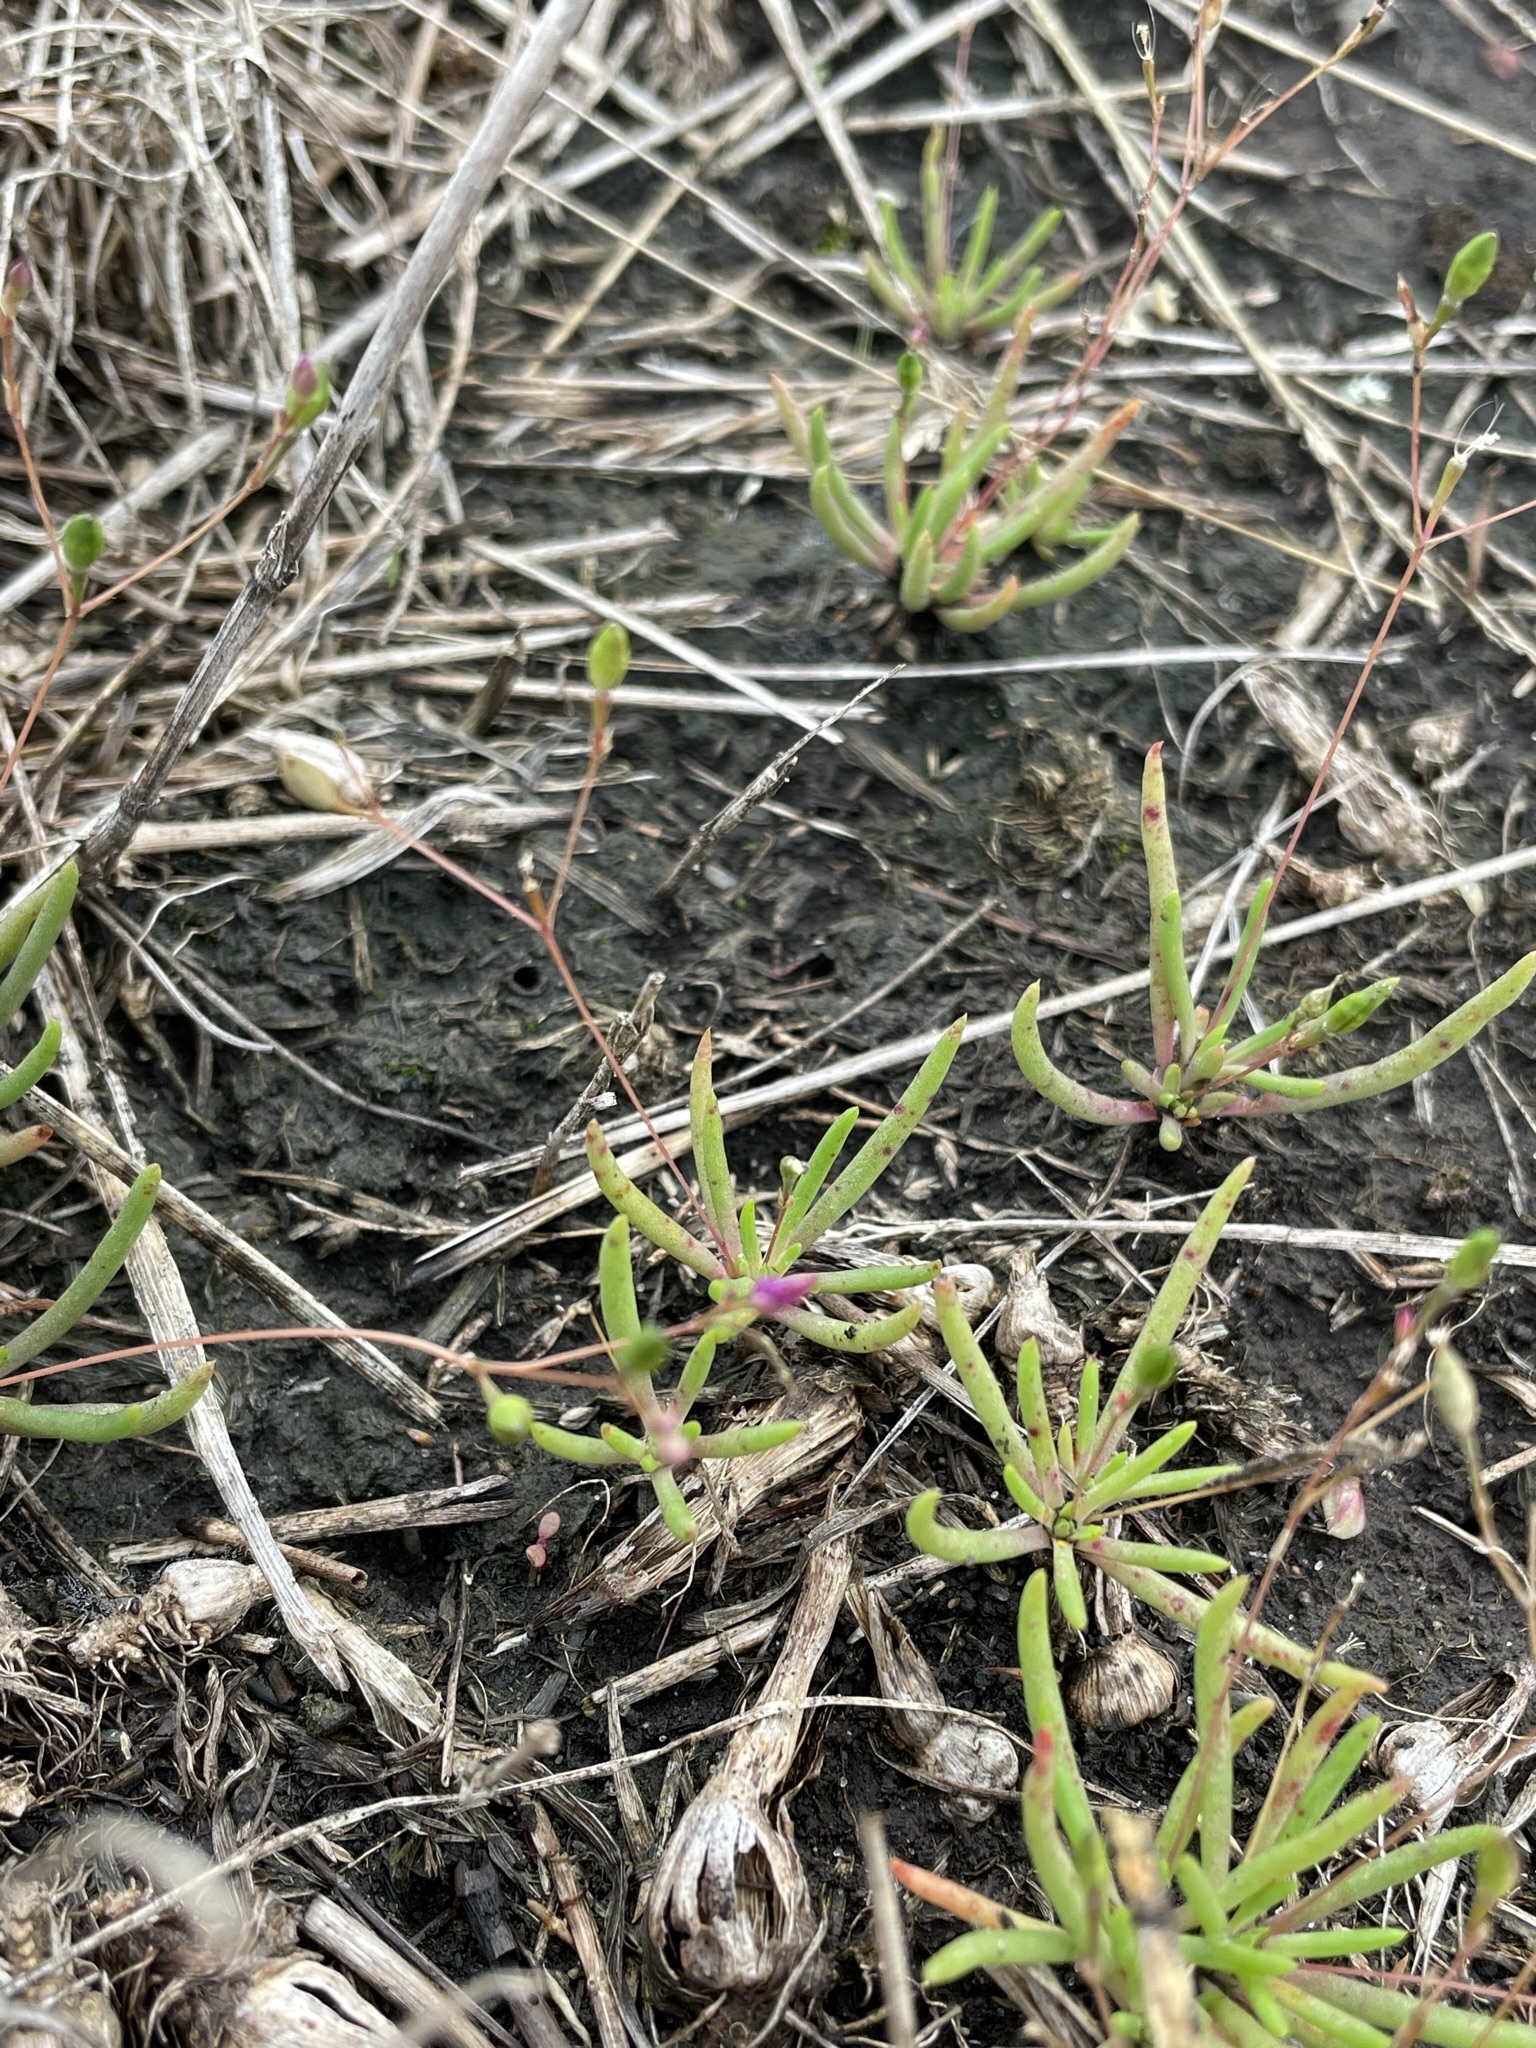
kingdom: Plantae
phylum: Tracheophyta
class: Magnoliopsida
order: Caryophyllales
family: Montiaceae
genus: Phemeranthus
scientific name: Phemeranthus parviflorus
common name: Sunbright
